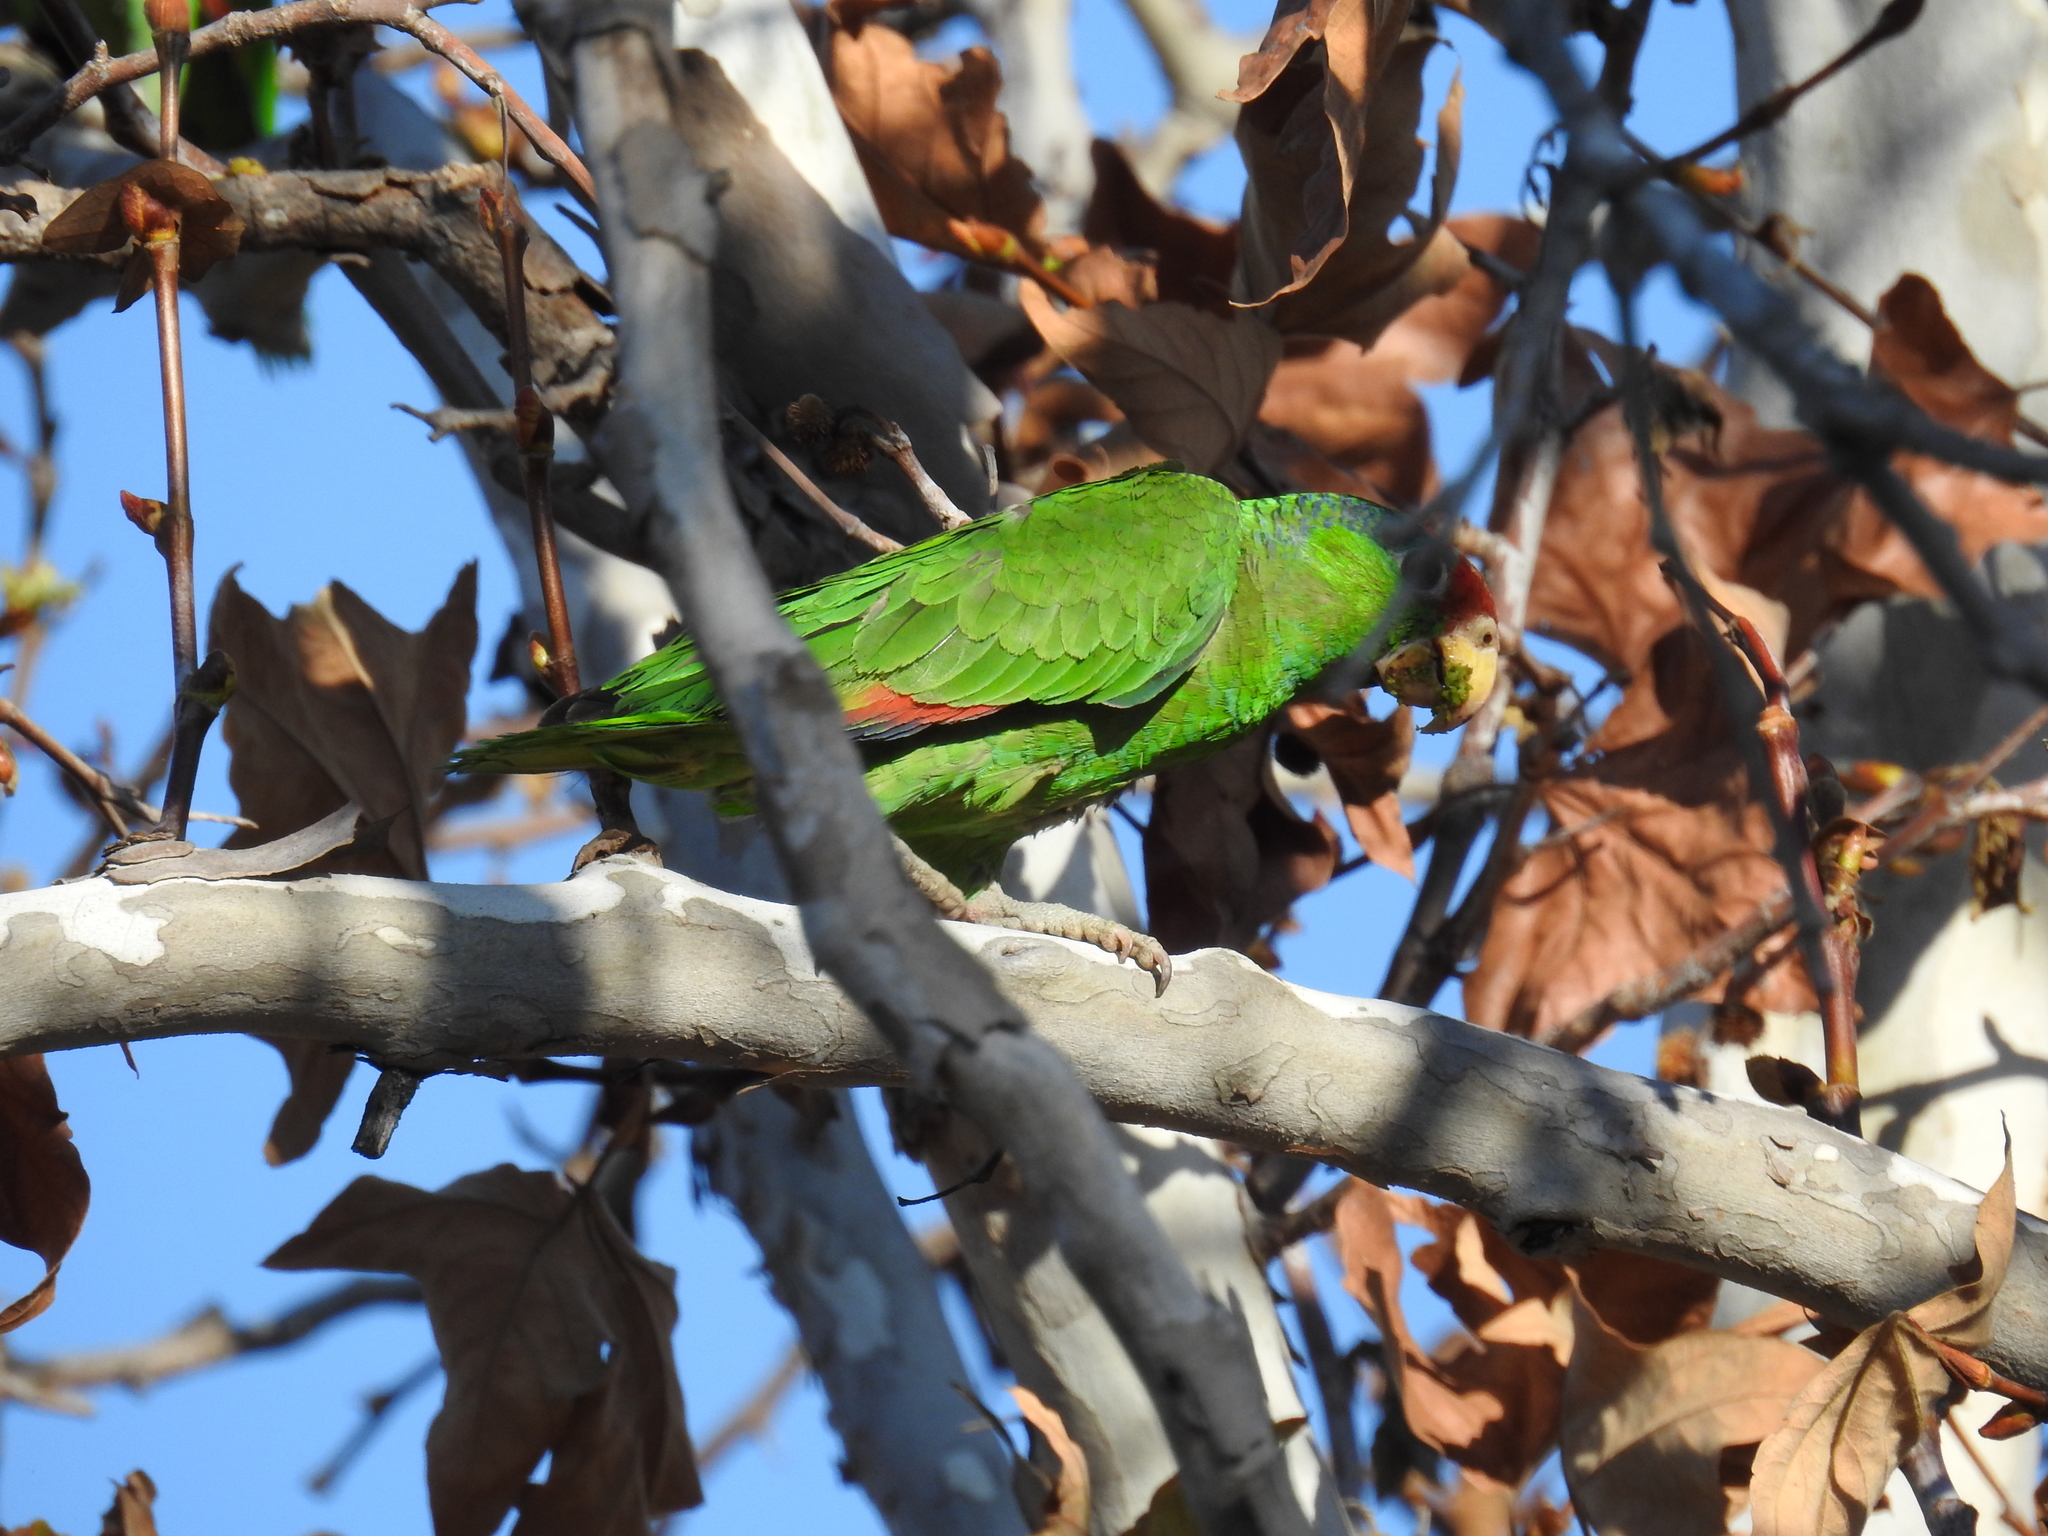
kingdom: Animalia
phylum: Chordata
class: Aves
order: Psittaciformes
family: Psittacidae
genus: Amazona
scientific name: Amazona viridigenalis
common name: Red-crowned amazon
